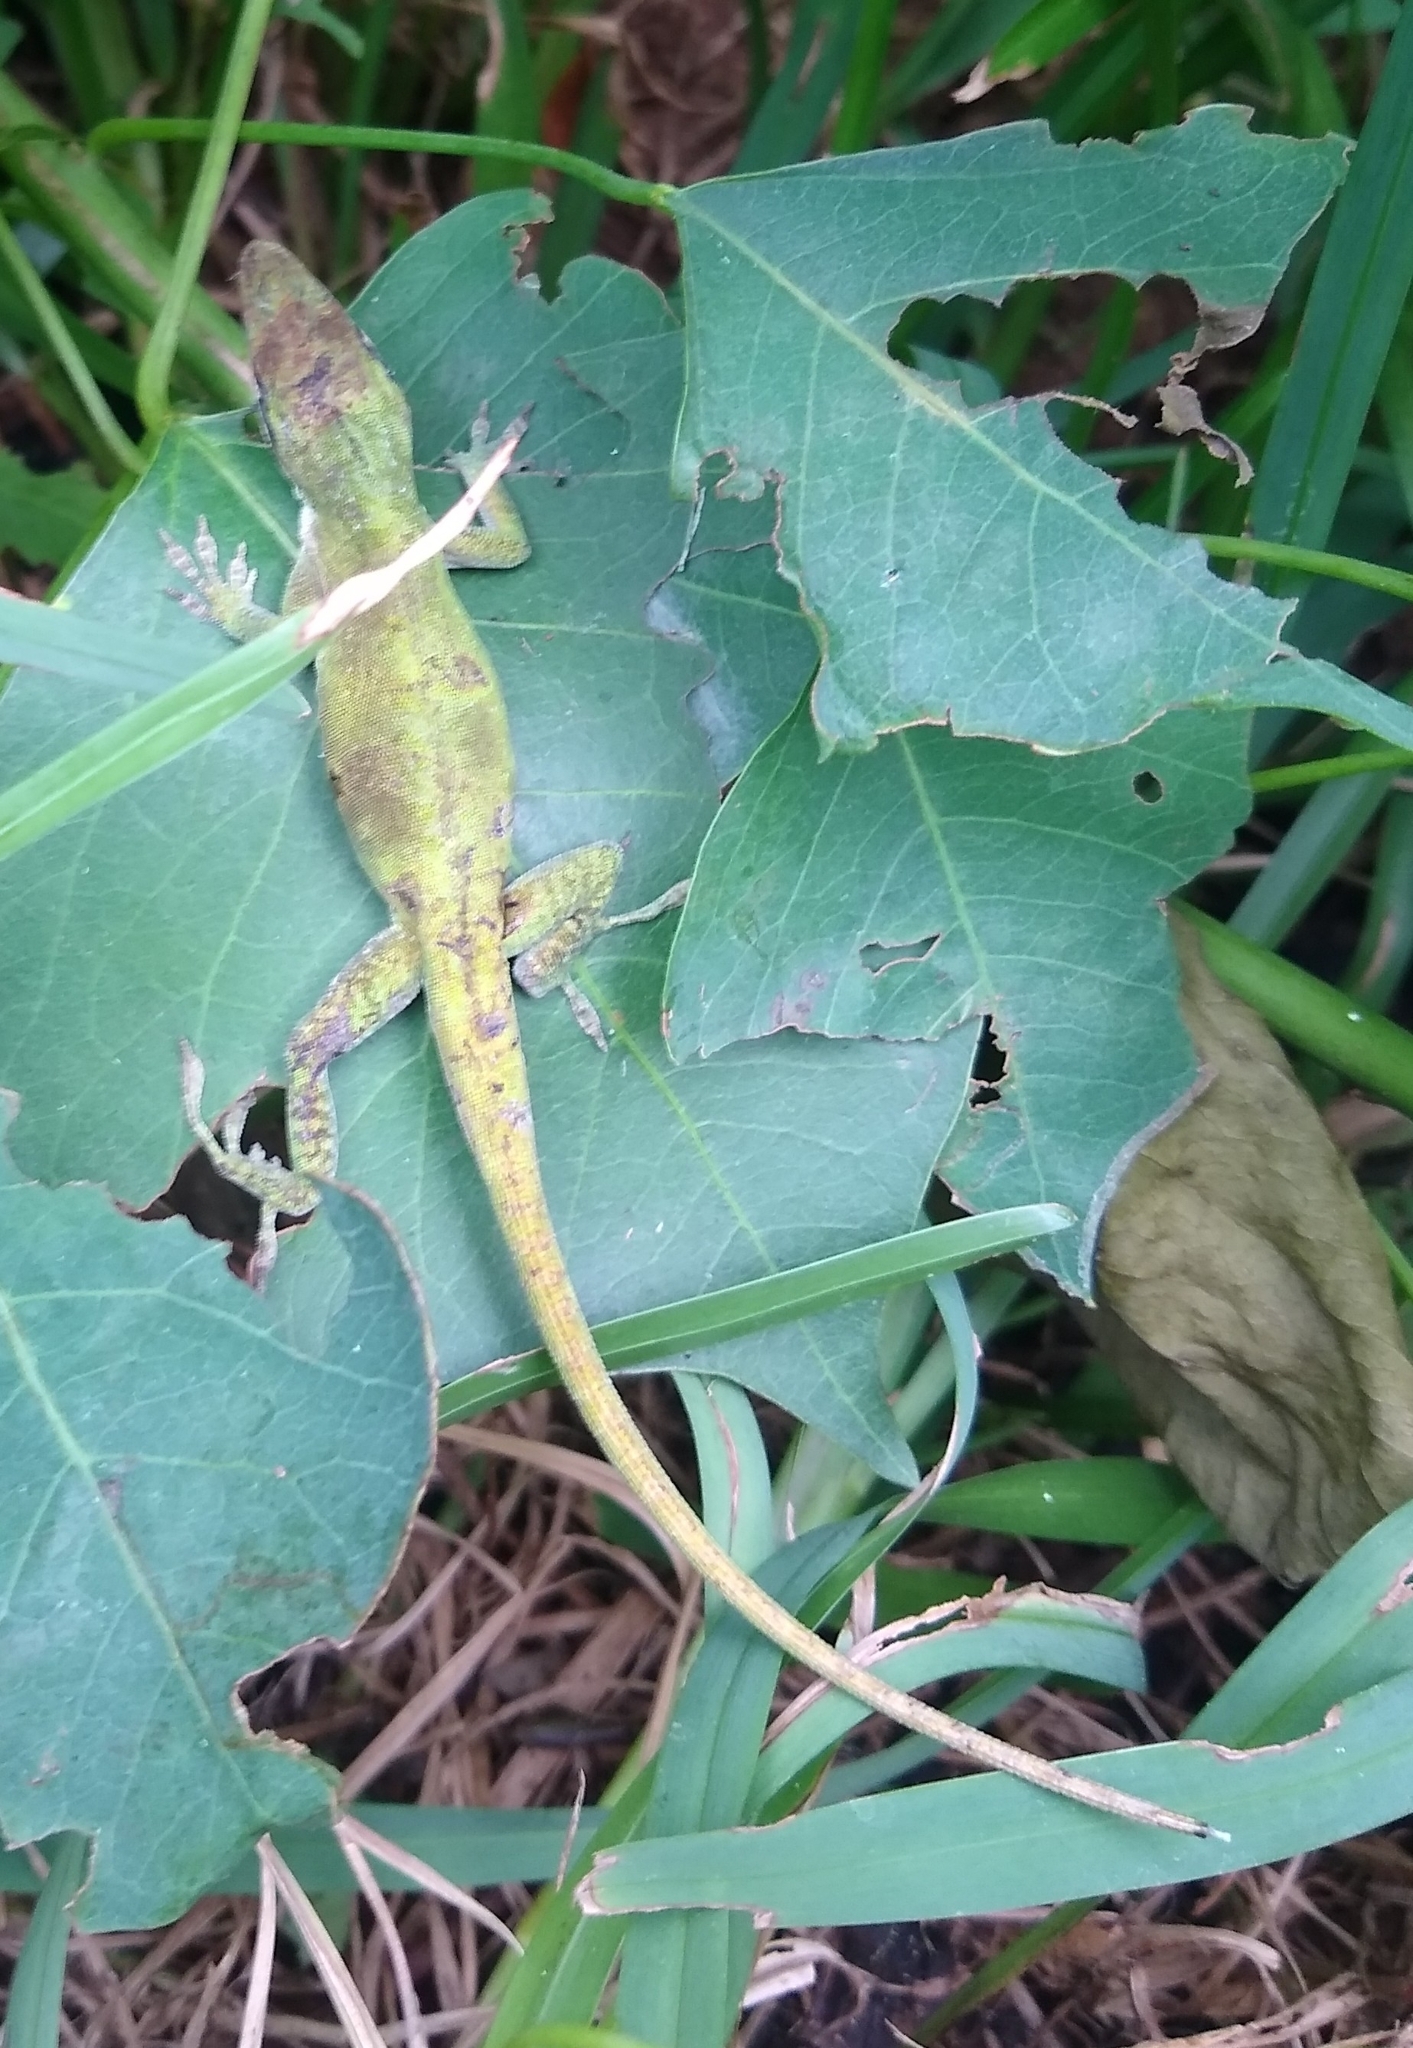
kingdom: Animalia
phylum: Chordata
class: Squamata
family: Dactyloidae
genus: Anolis
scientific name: Anolis carolinensis
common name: Green anole
